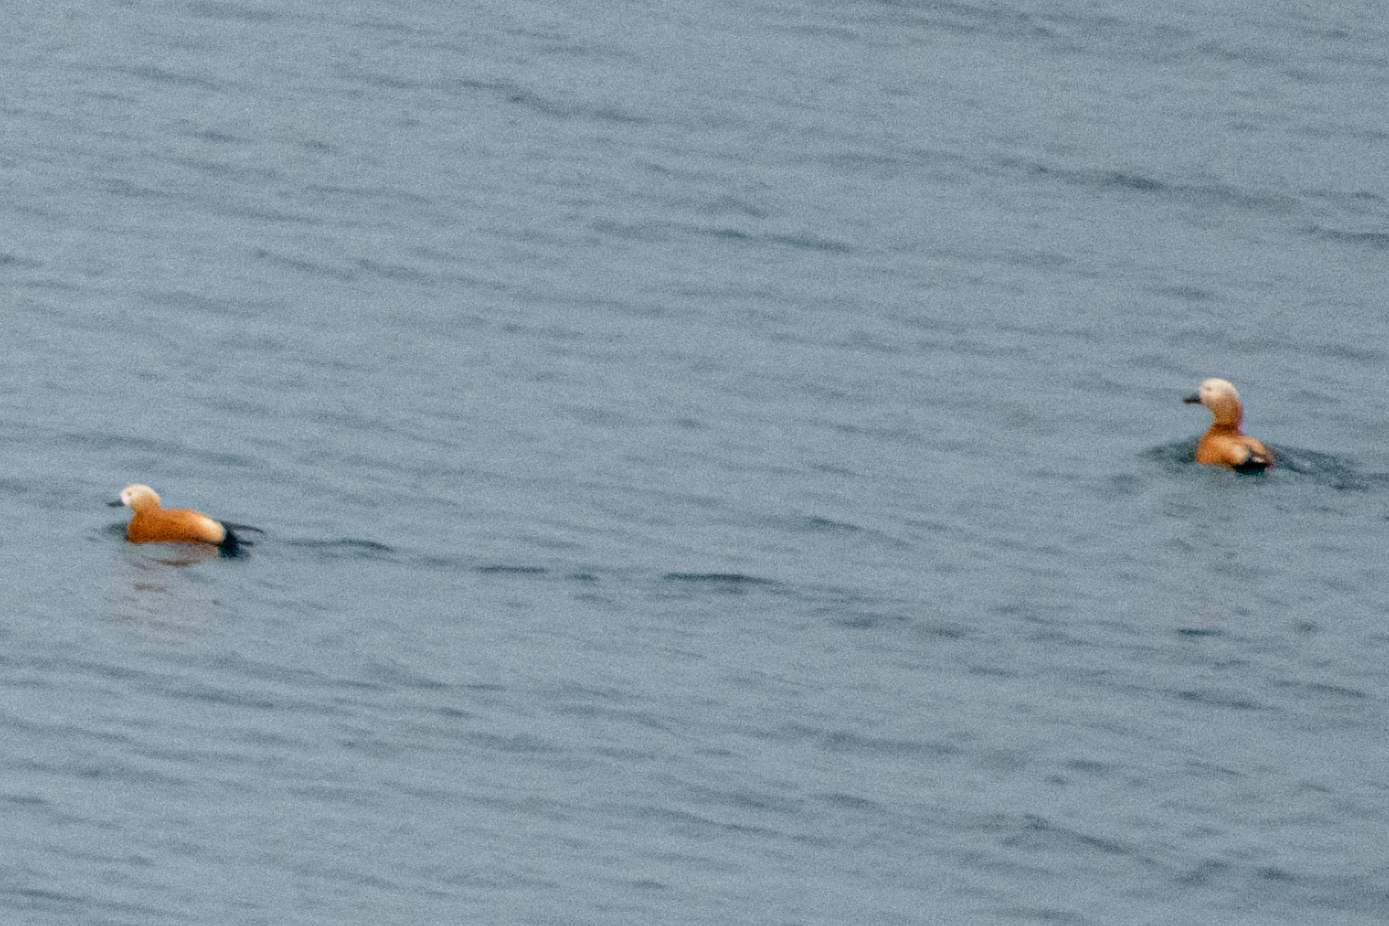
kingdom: Animalia
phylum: Chordata
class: Aves
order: Anseriformes
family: Anatidae
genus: Tadorna
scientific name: Tadorna ferruginea
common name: Ruddy shelduck
